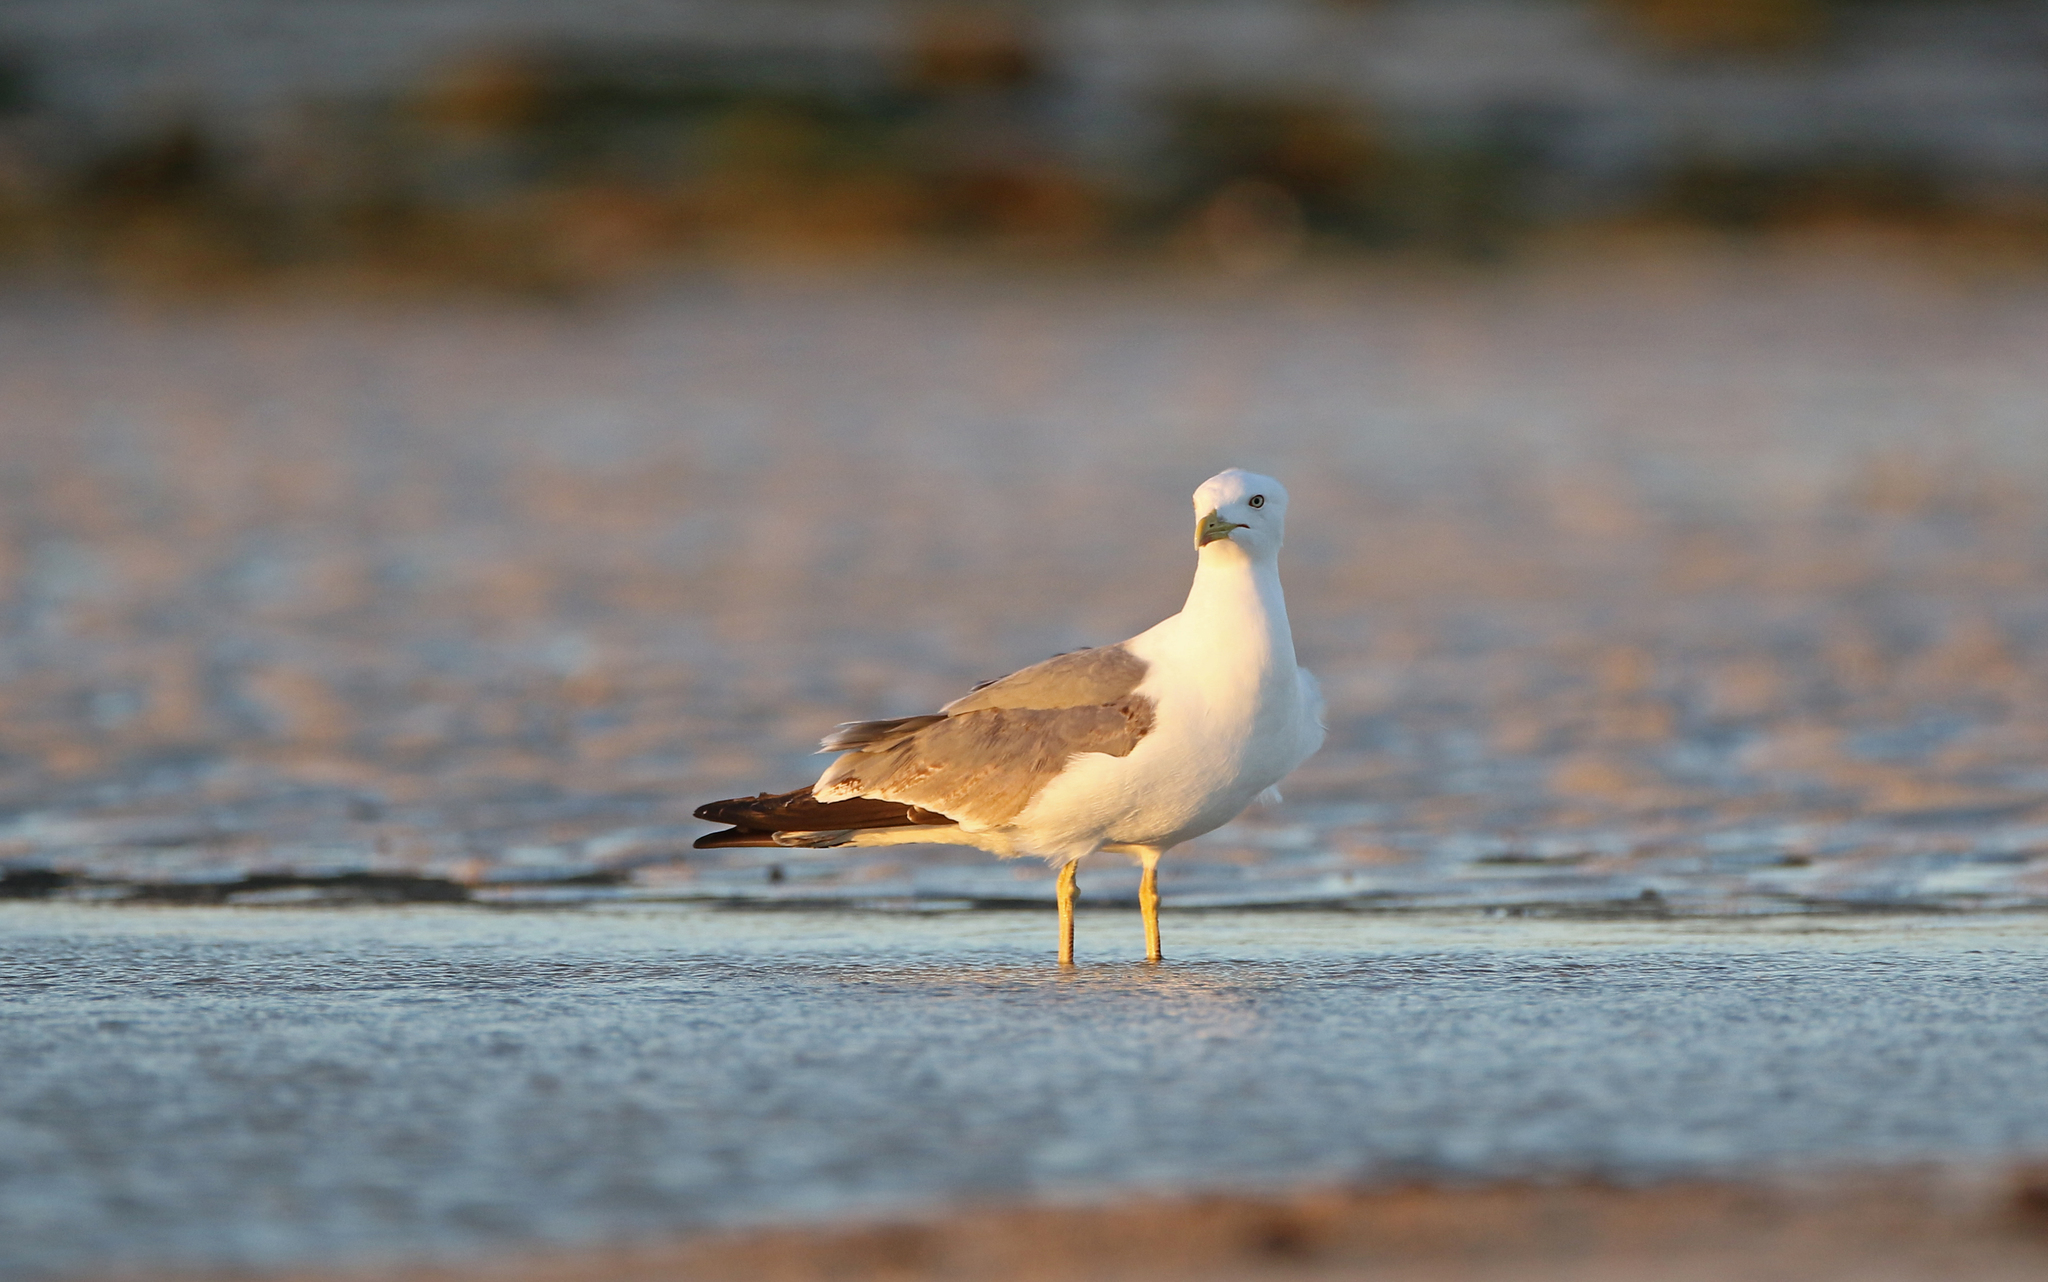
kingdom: Animalia
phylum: Chordata
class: Aves
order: Charadriiformes
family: Laridae
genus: Larus
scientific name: Larus michahellis
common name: Yellow-legged gull
